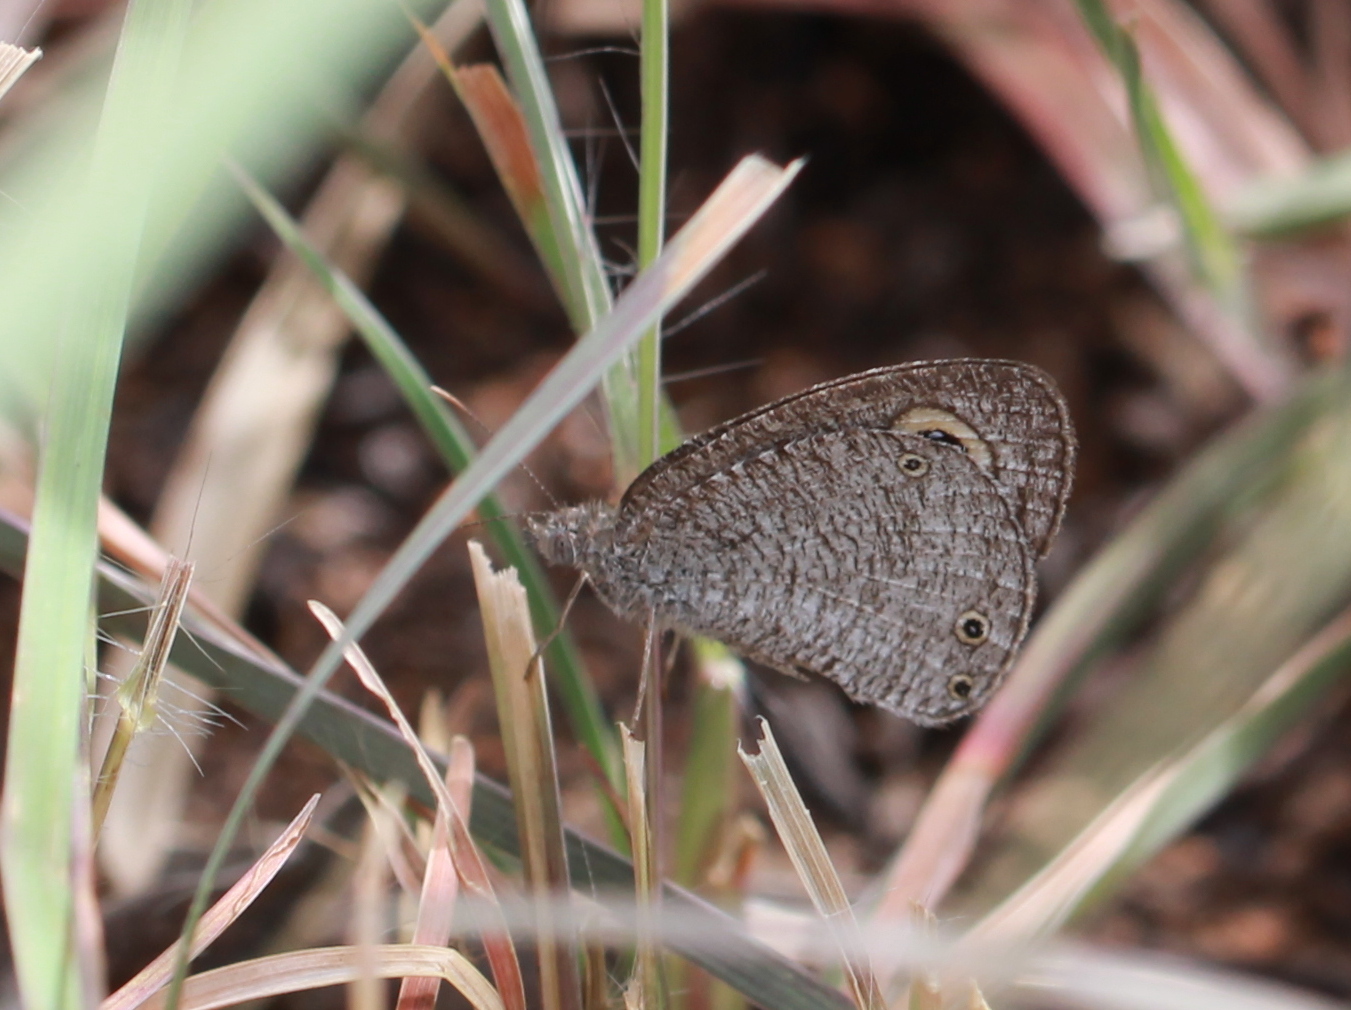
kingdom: Animalia
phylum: Arthropoda
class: Insecta
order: Lepidoptera
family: Nymphalidae
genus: Ypthima
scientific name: Ypthima asterope
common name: African ringlet
